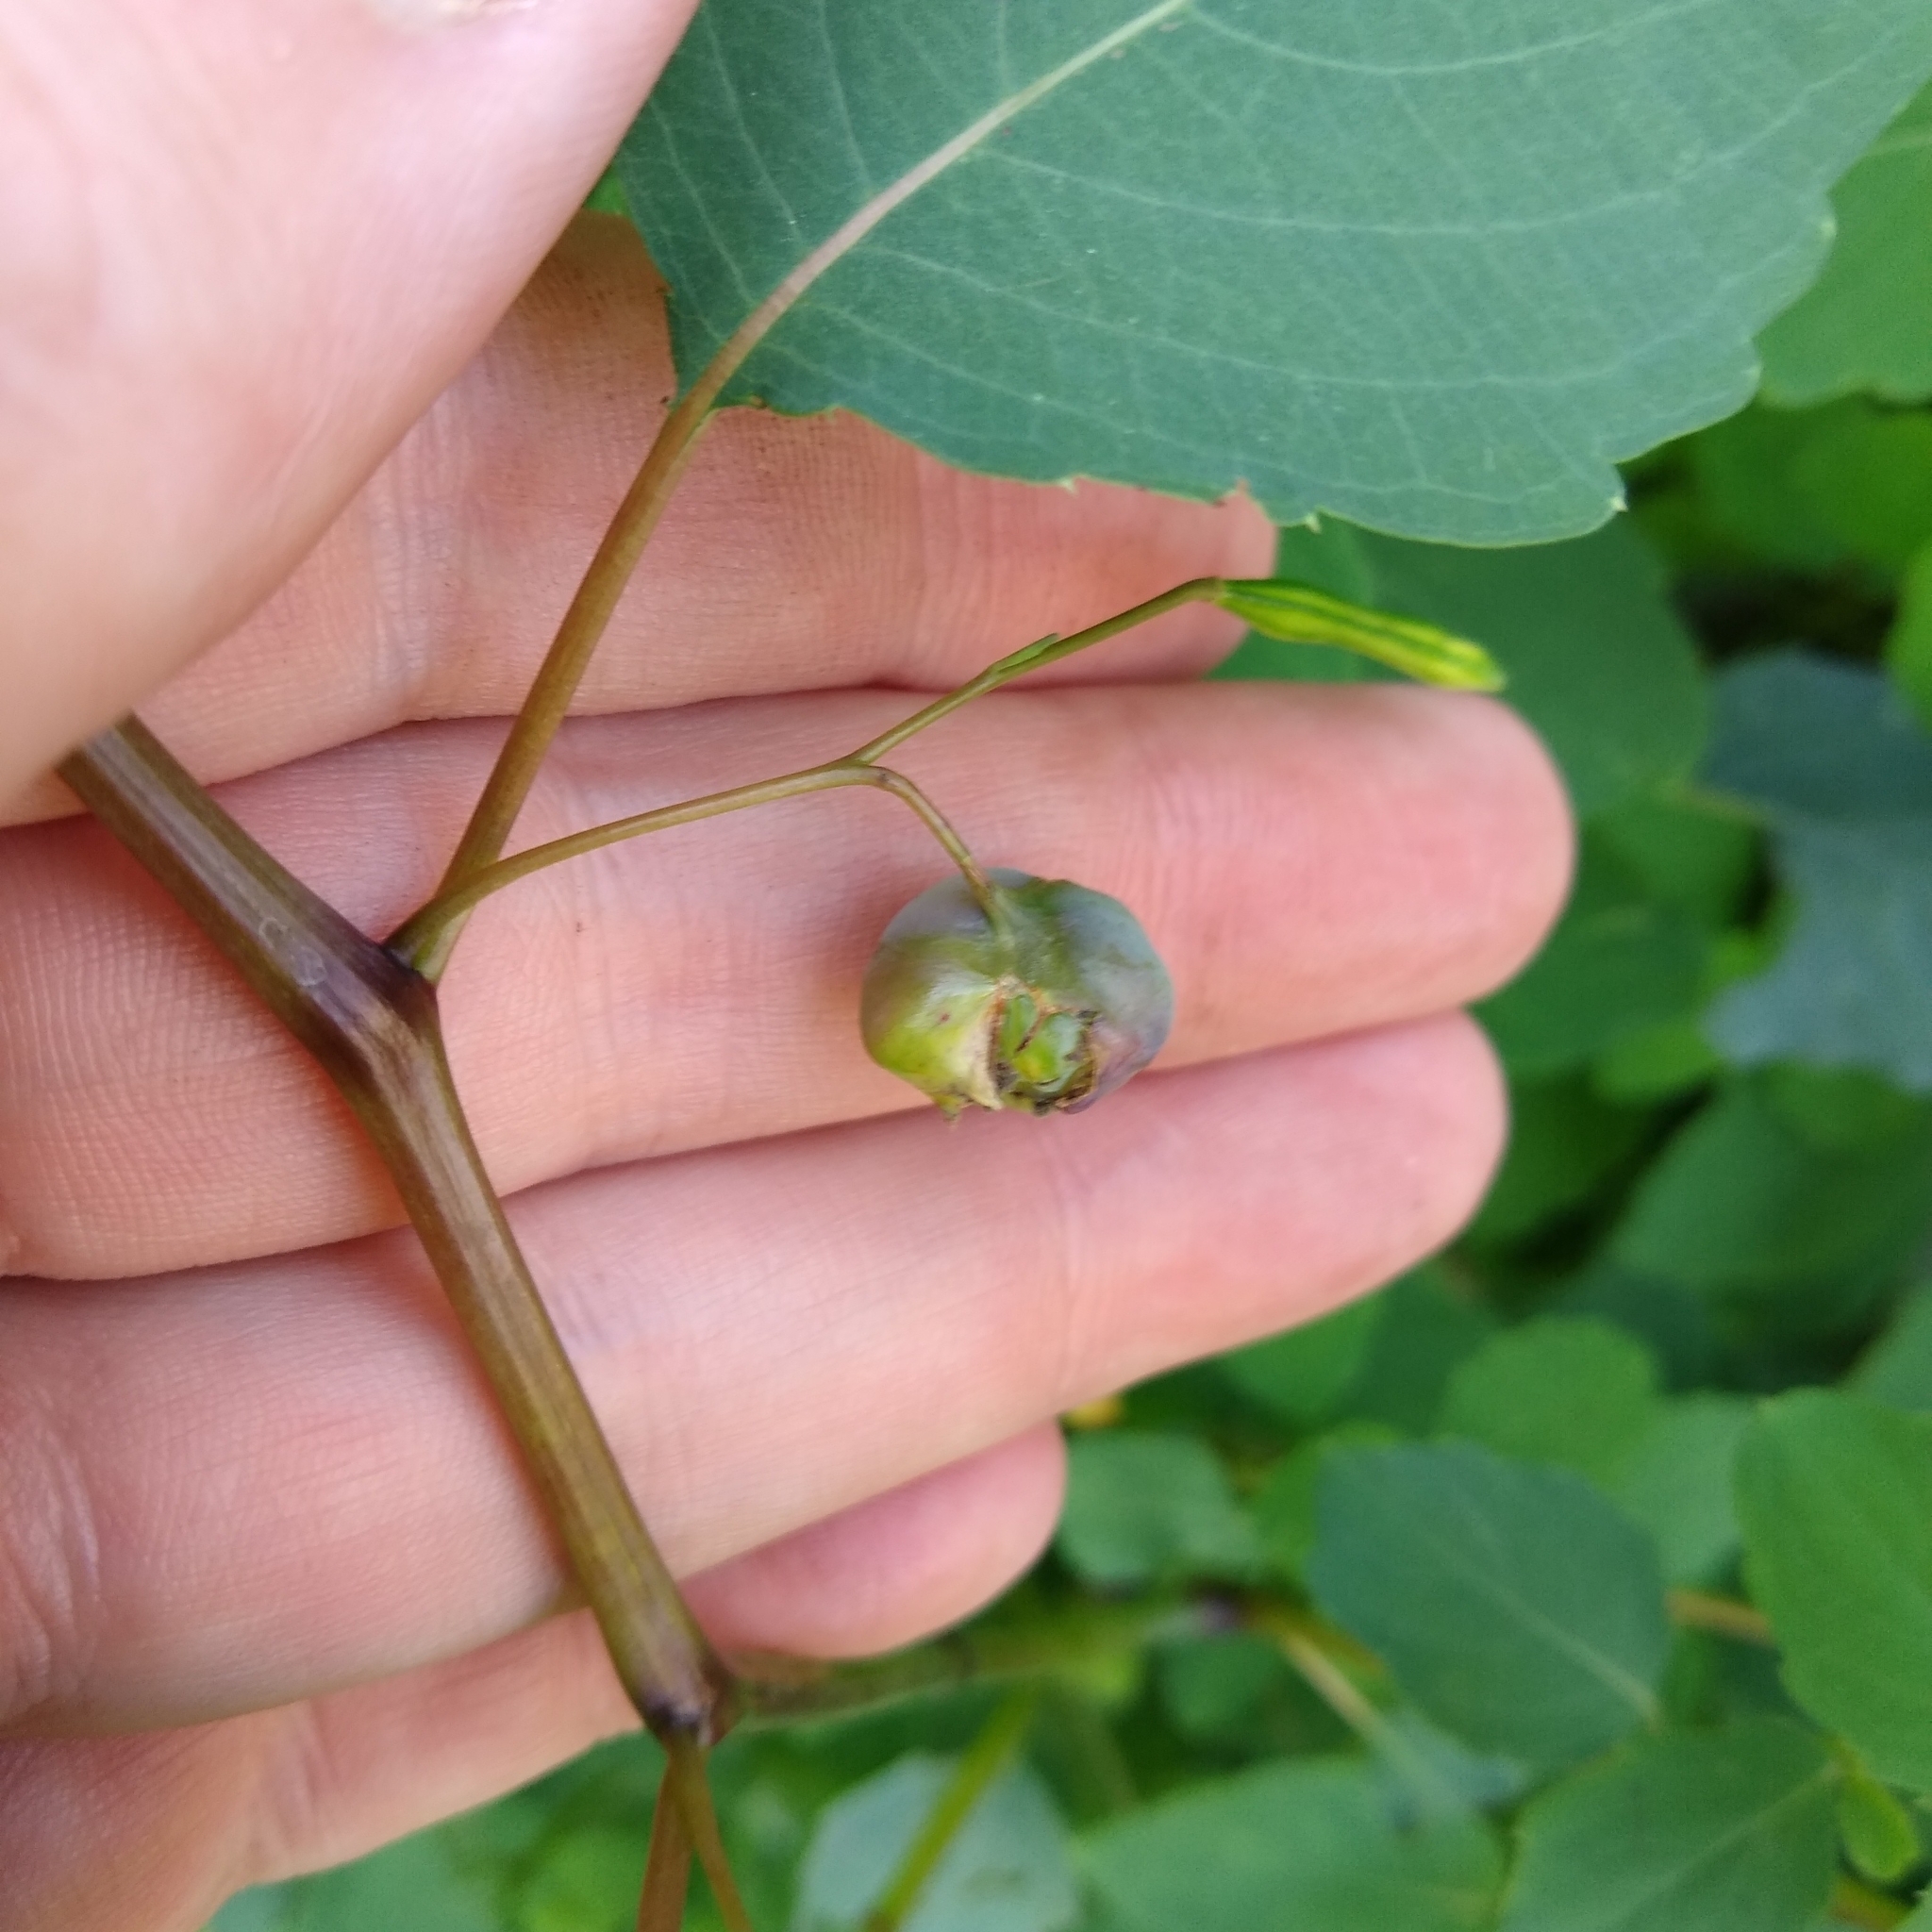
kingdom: Animalia
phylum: Arthropoda
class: Insecta
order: Diptera
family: Cecidomyiidae
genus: Schizomyia
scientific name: Schizomyia impatientis
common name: Jewelweed gall midge
